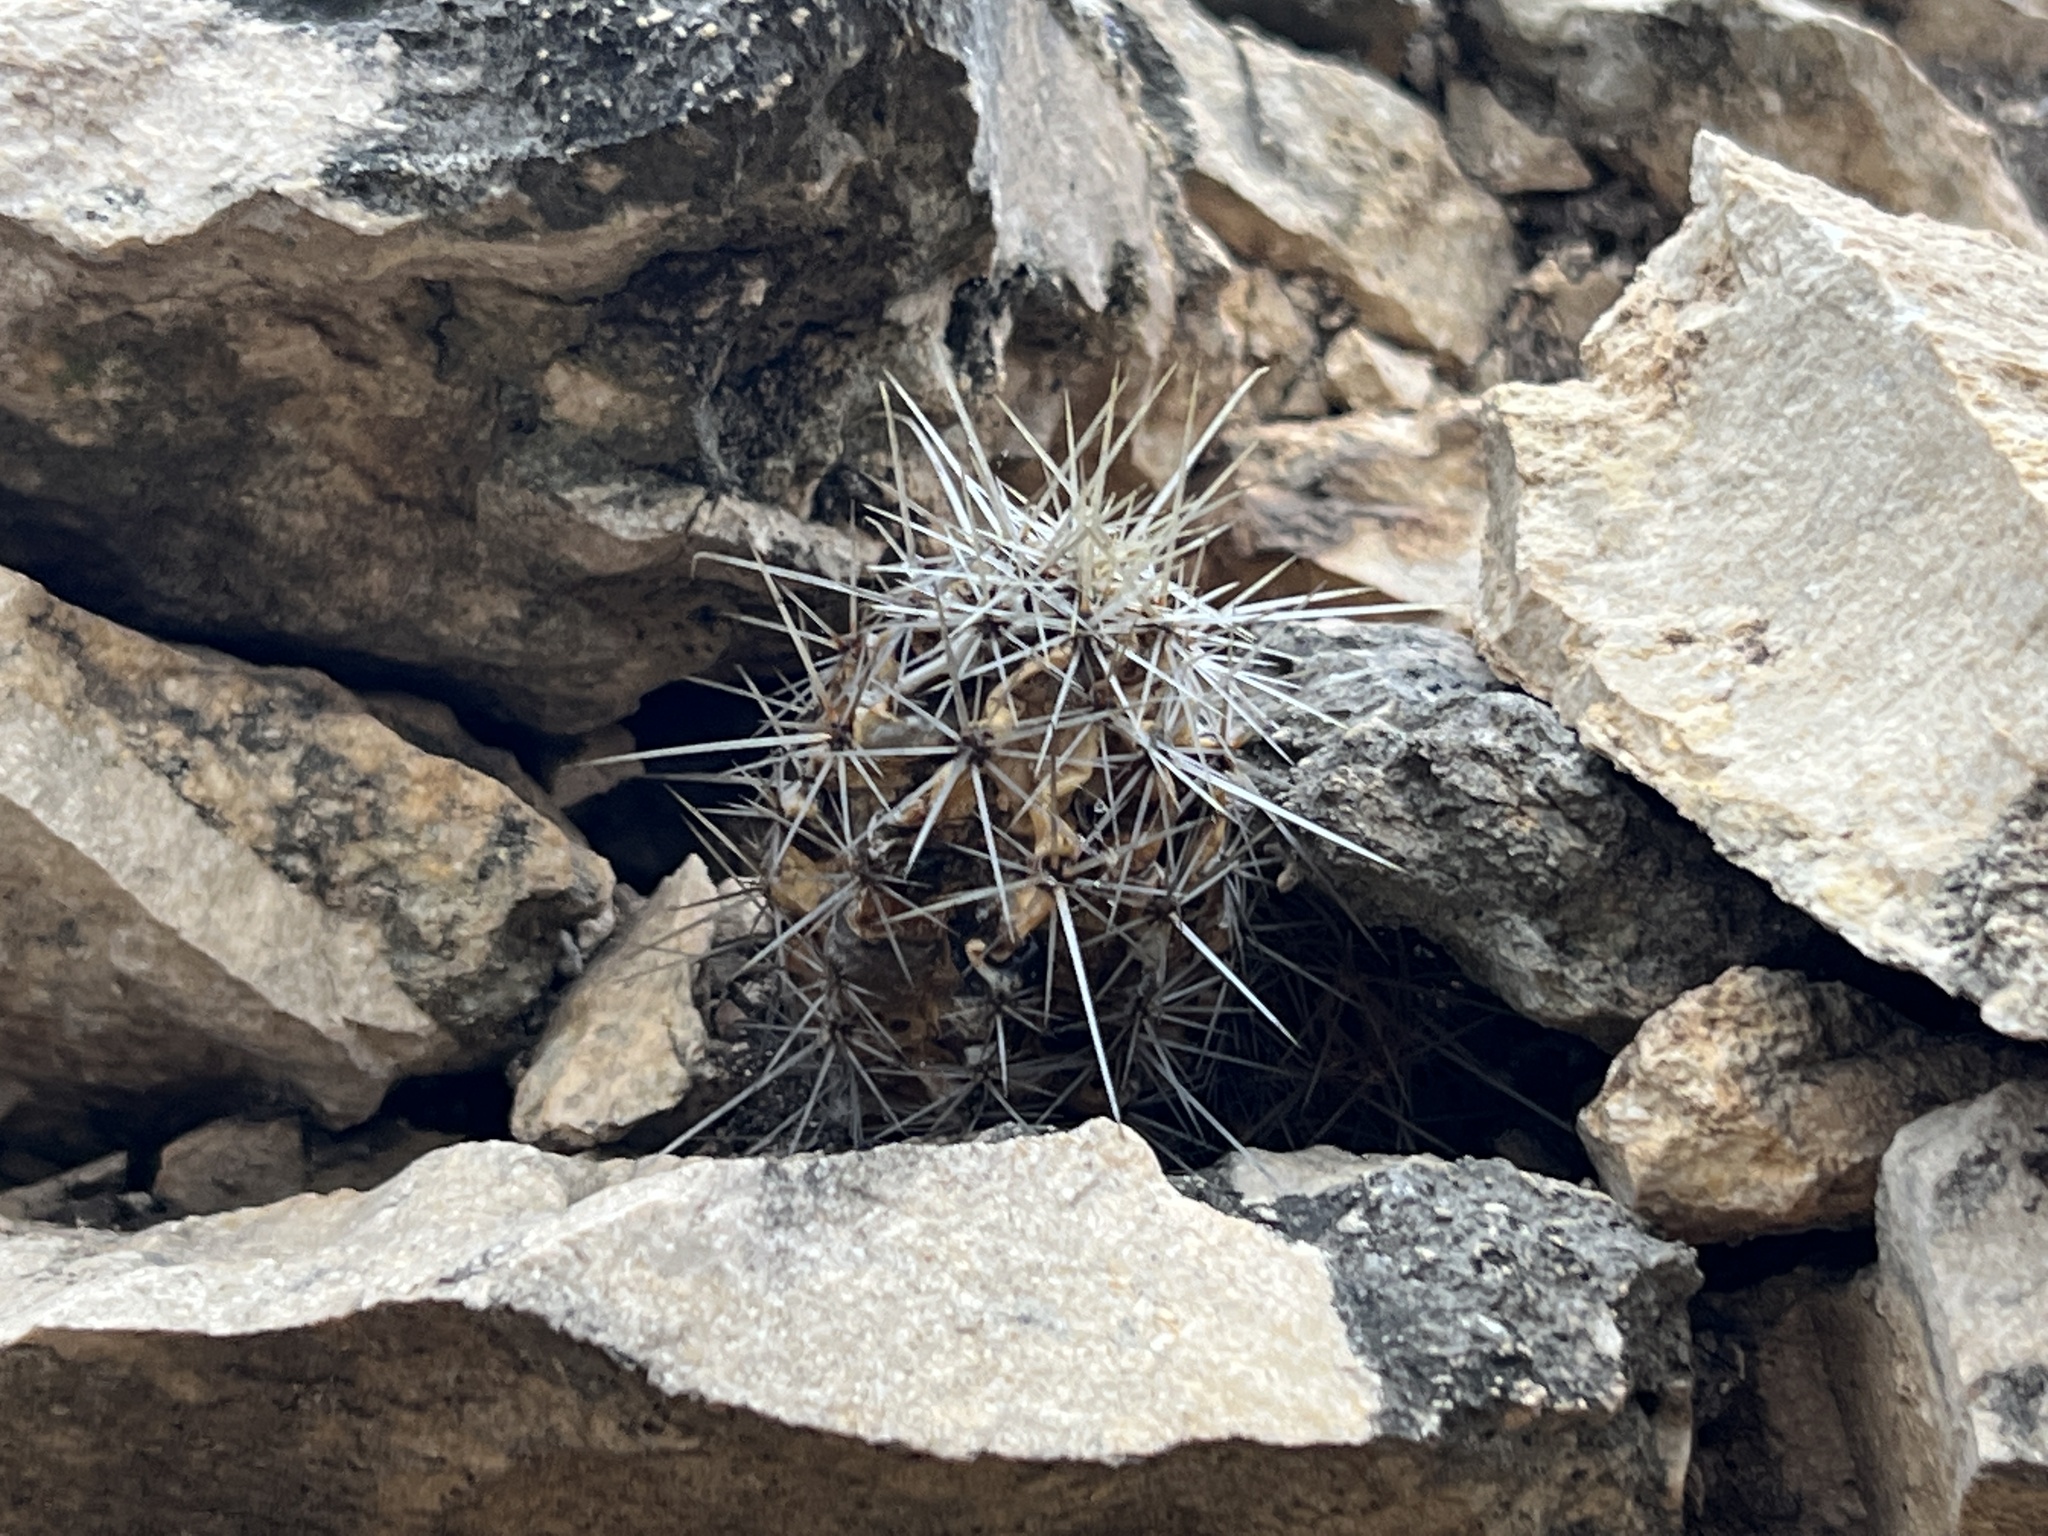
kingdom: Plantae
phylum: Tracheophyta
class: Magnoliopsida
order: Caryophyllales
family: Cactaceae
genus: Echinocereus
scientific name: Echinocereus enneacanthus
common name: Pitaya
